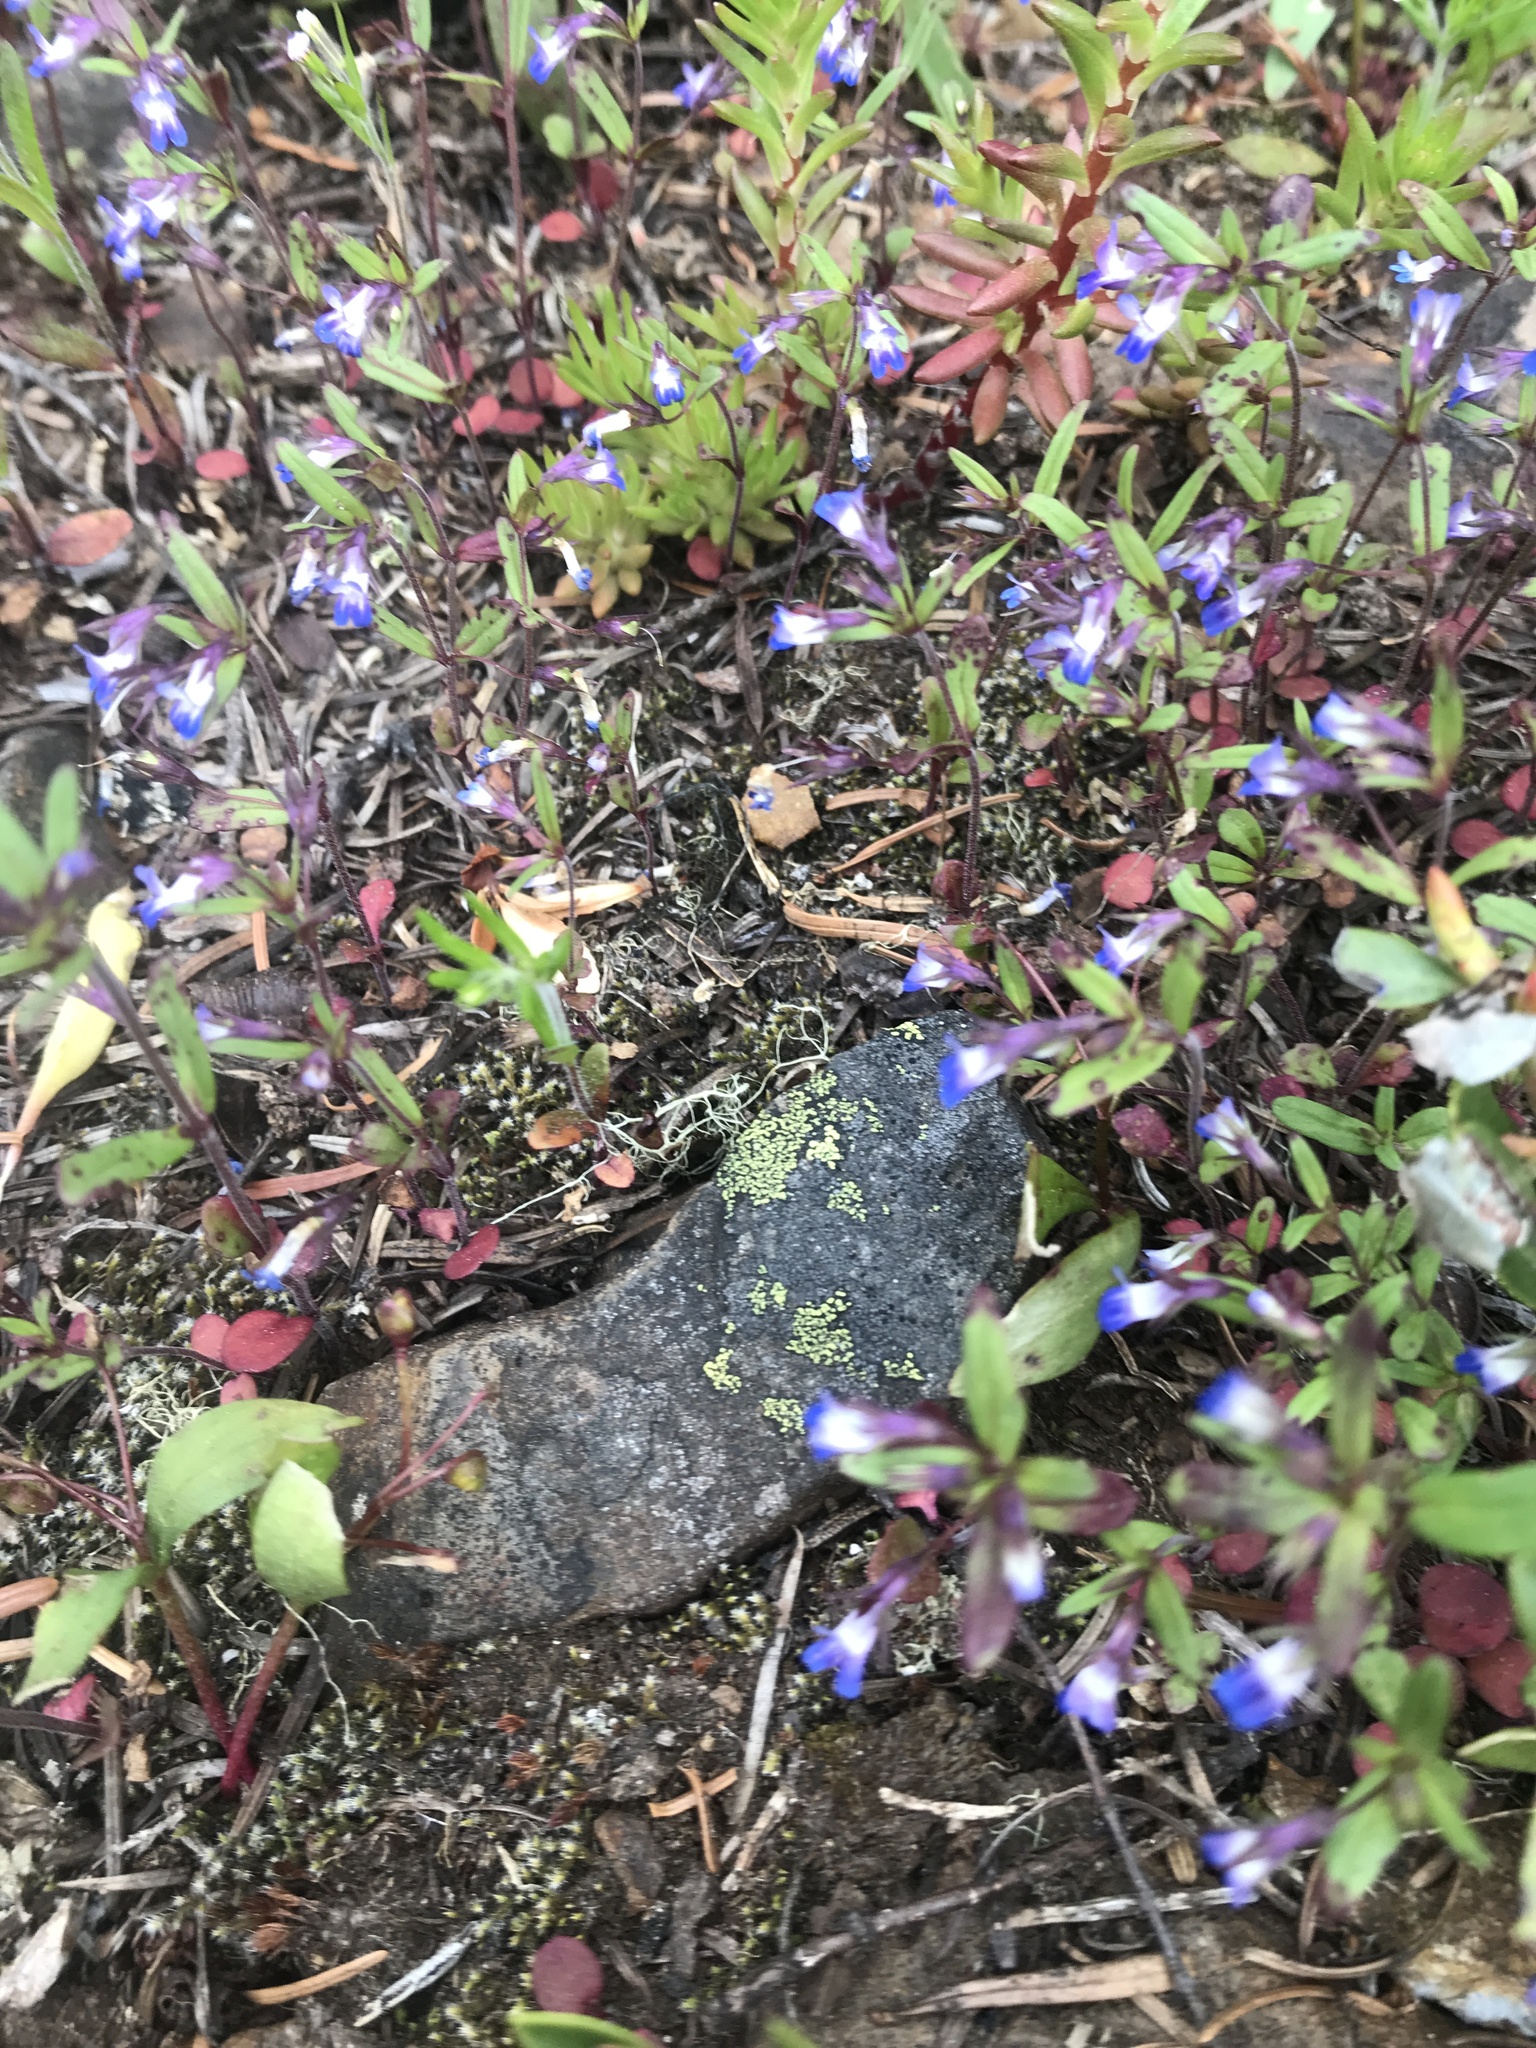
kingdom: Plantae
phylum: Tracheophyta
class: Magnoliopsida
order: Lamiales
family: Plantaginaceae
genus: Collinsia
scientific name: Collinsia parviflora
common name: Blue-lips
